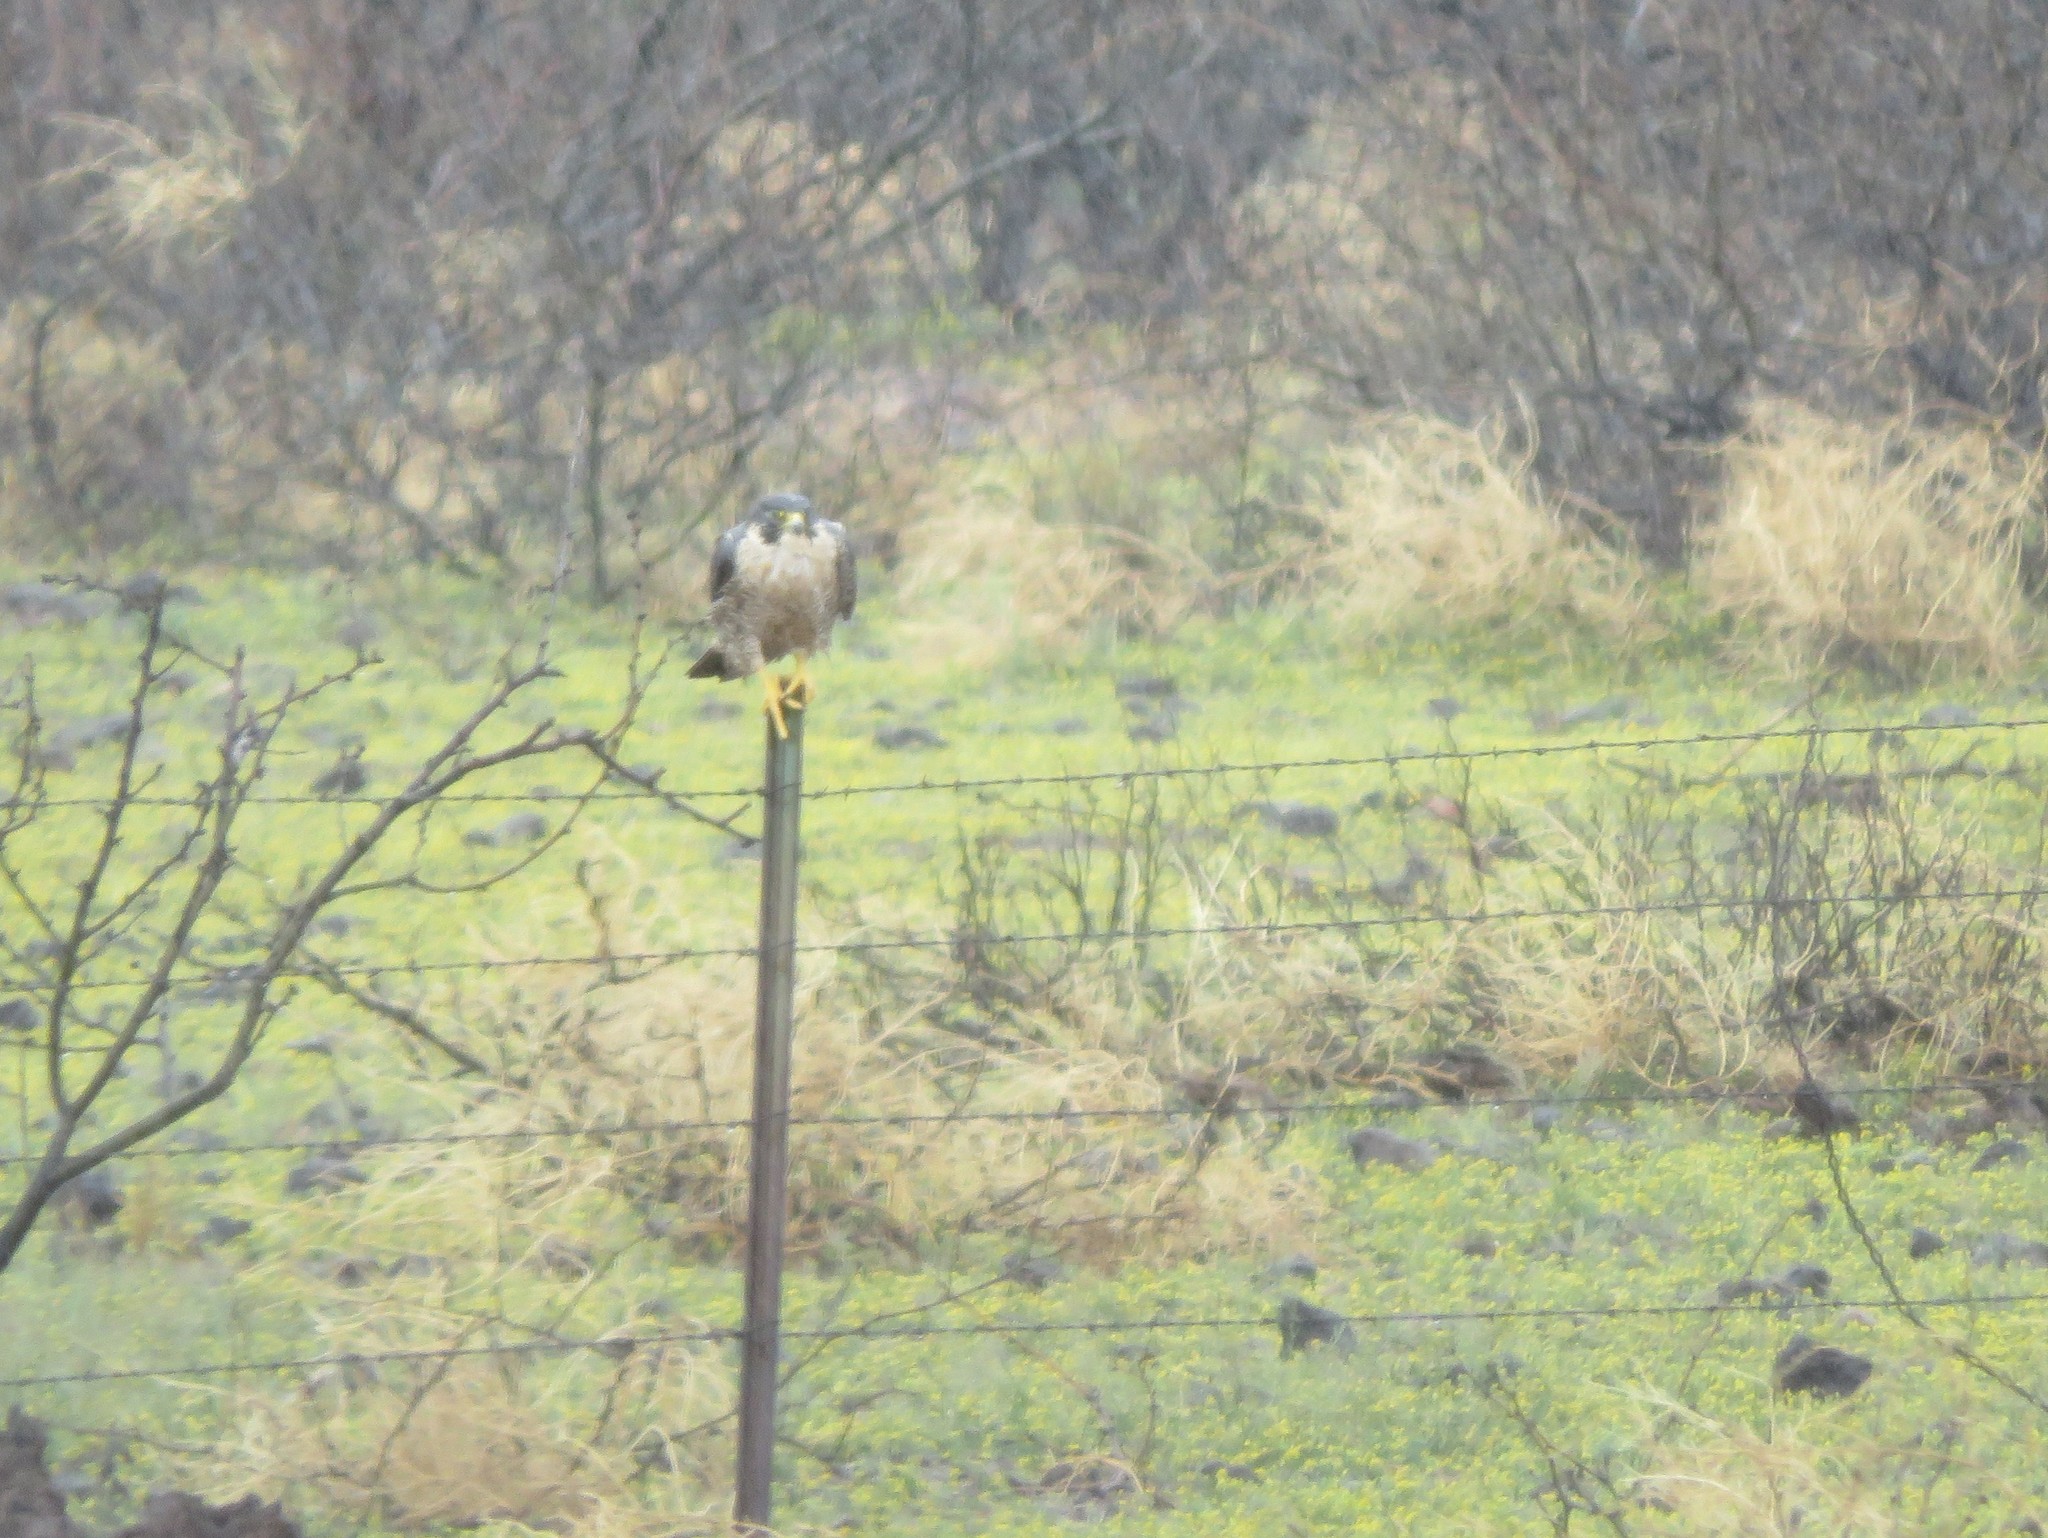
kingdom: Animalia
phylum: Chordata
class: Aves
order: Falconiformes
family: Falconidae
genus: Falco
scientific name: Falco peregrinus
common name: Peregrine falcon
